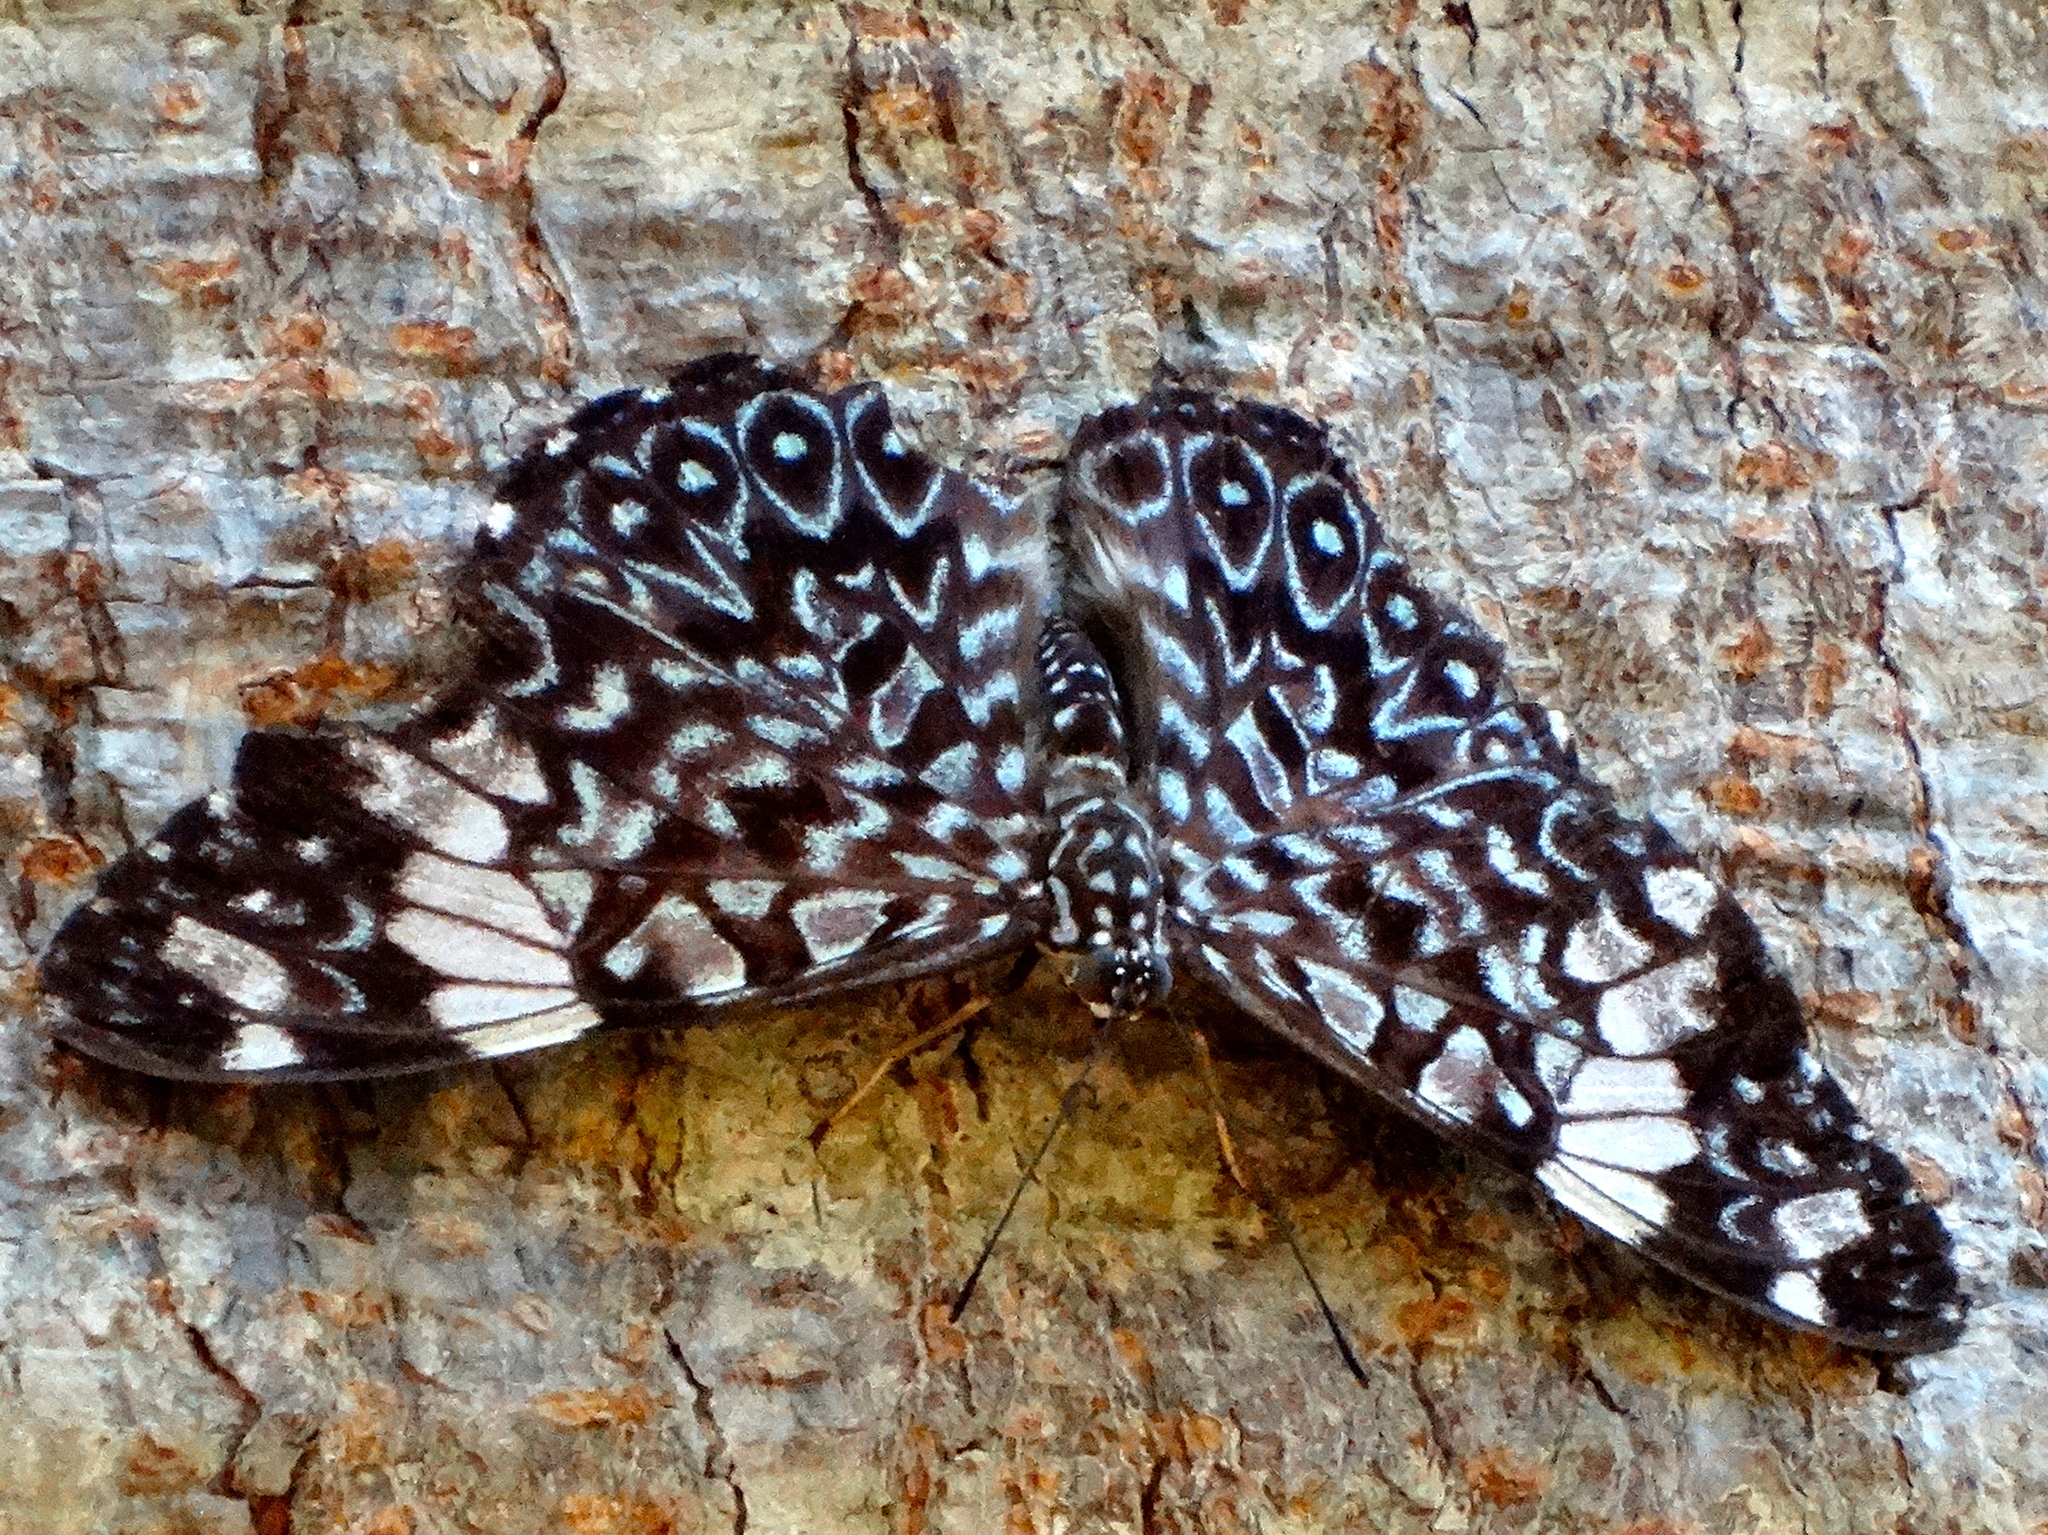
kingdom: Animalia
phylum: Arthropoda
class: Insecta
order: Lepidoptera
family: Nymphalidae
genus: Hamadryas
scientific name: Hamadryas amphinome
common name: Red cracker
